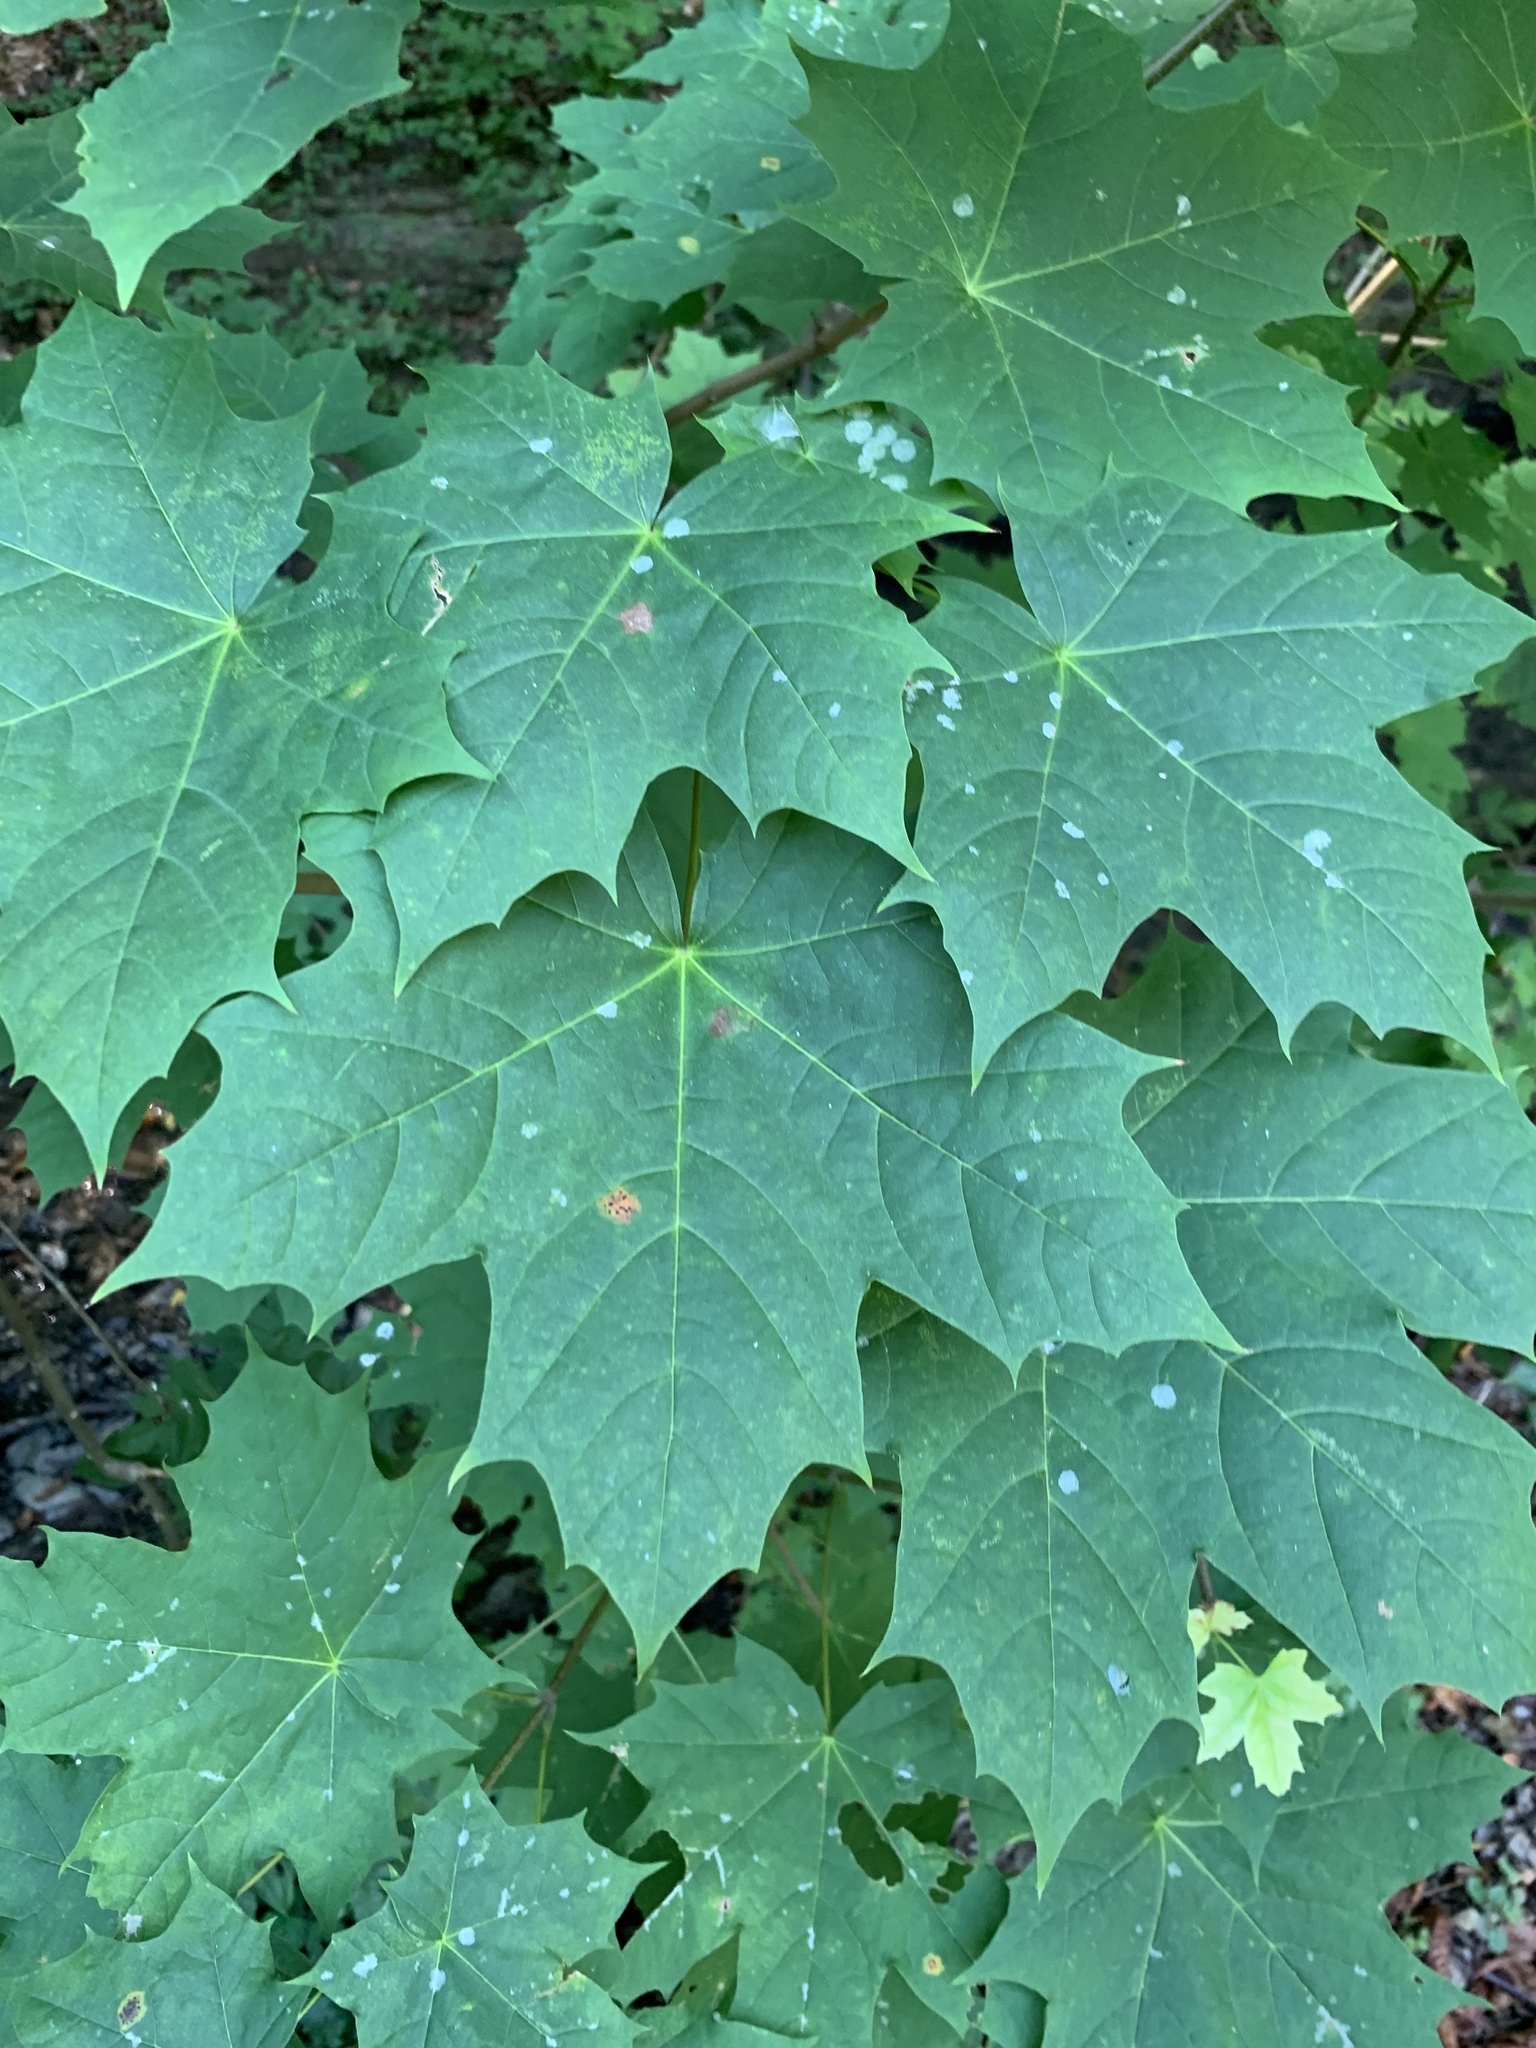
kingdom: Plantae
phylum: Tracheophyta
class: Magnoliopsida
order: Sapindales
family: Sapindaceae
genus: Acer
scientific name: Acer platanoides
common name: Norway maple
